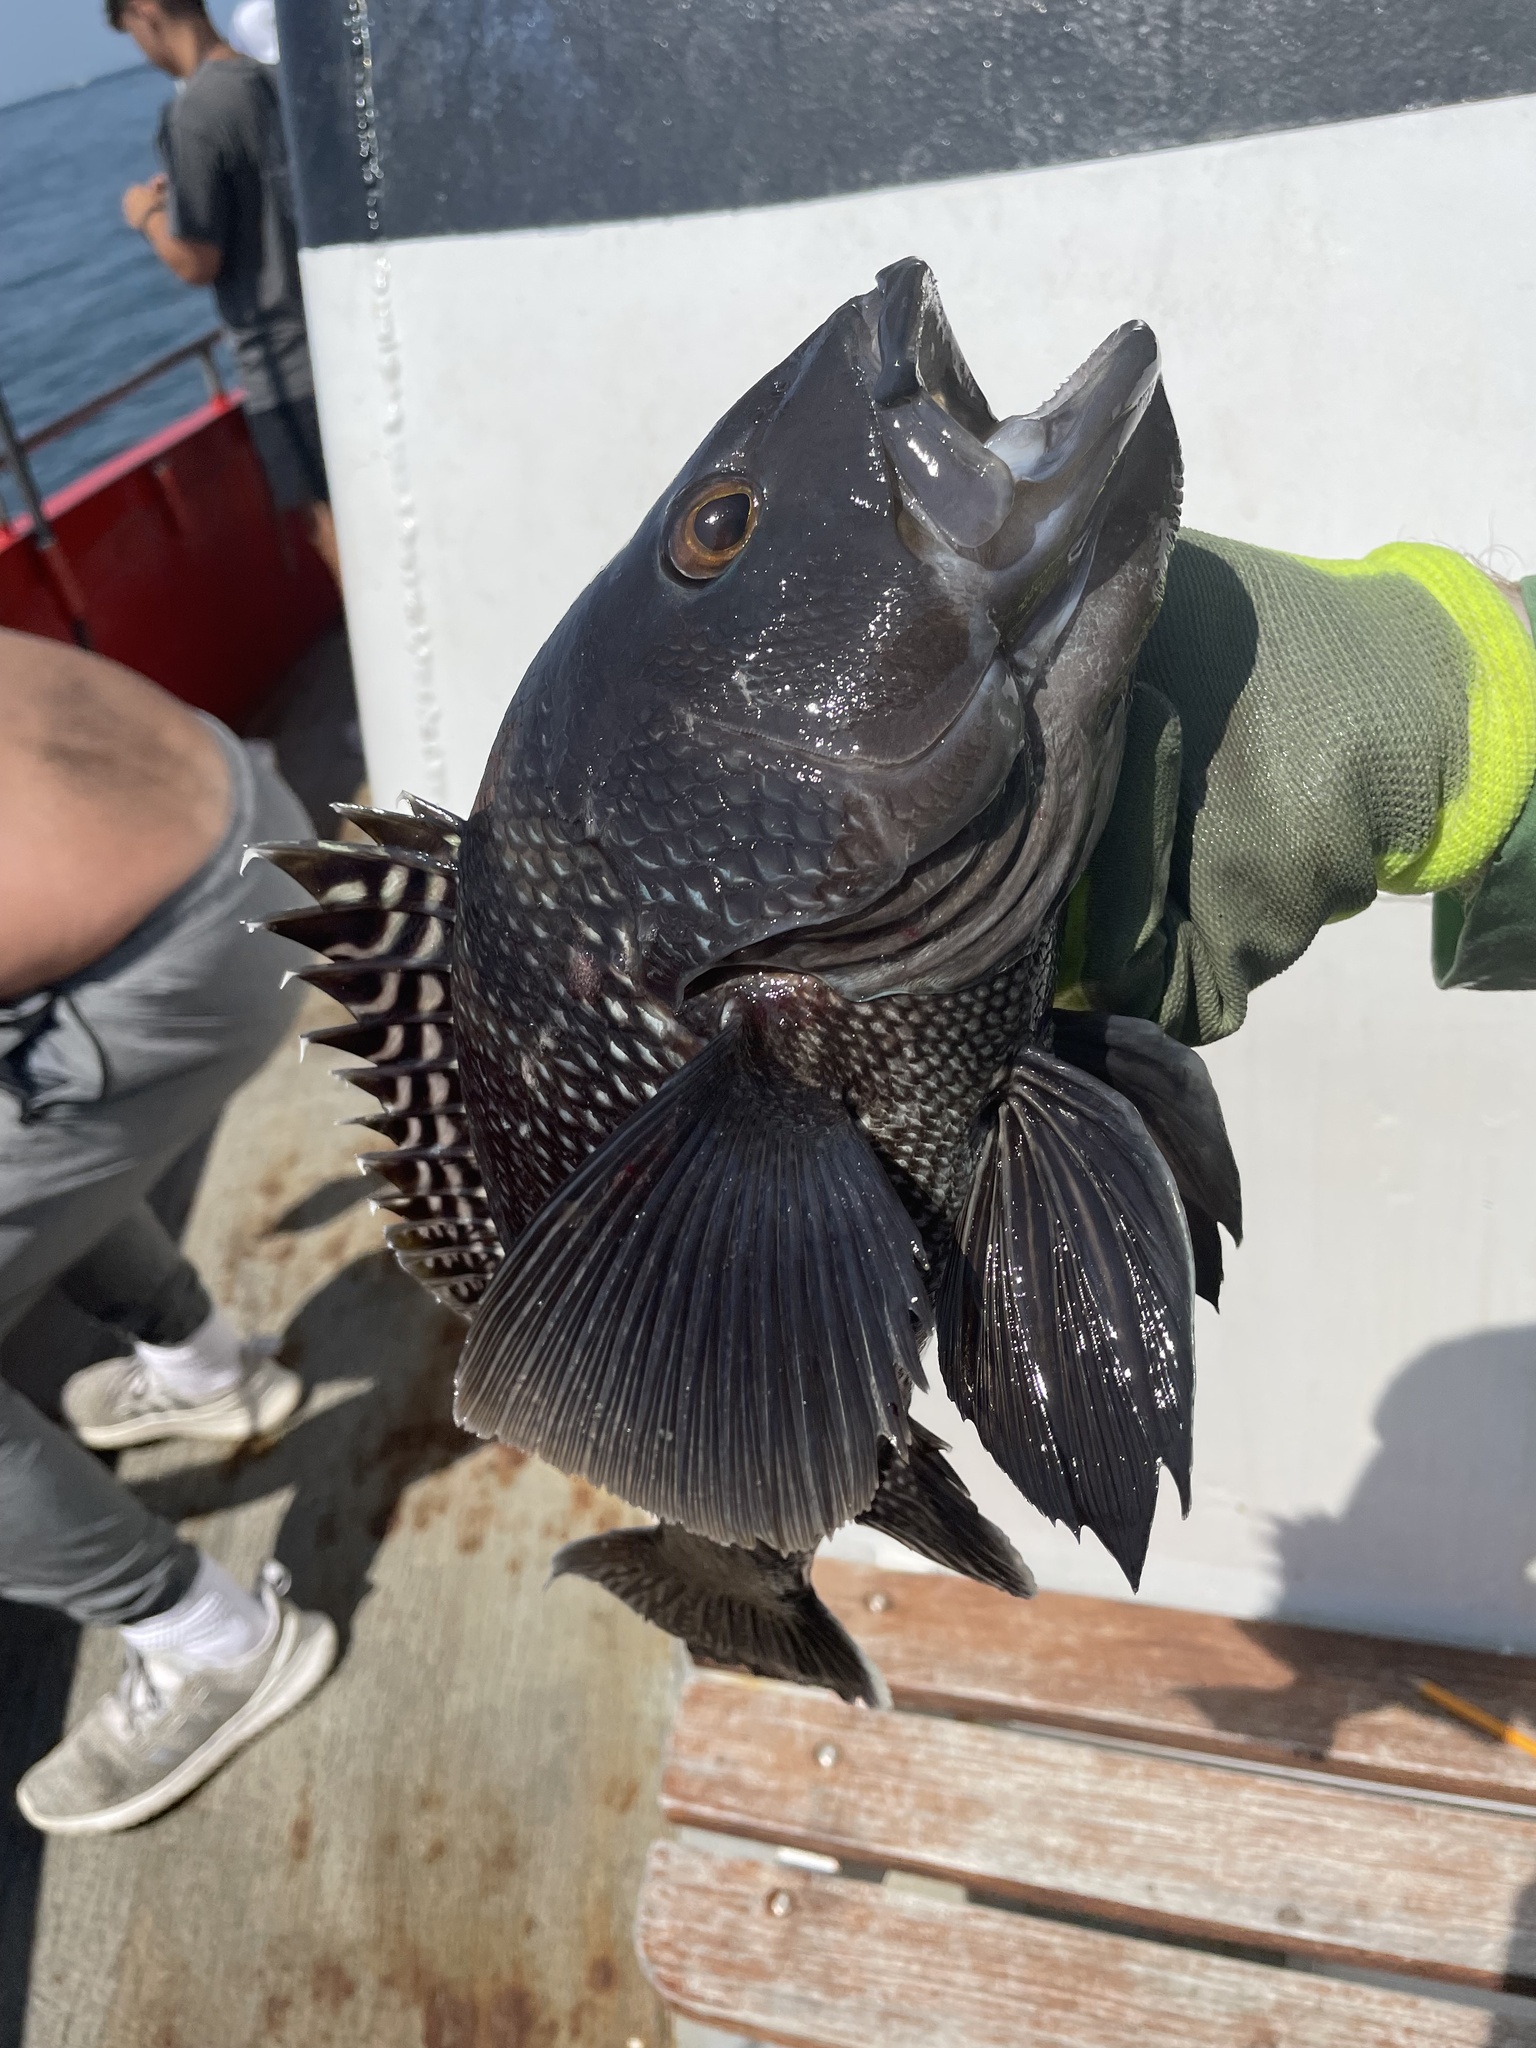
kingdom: Animalia
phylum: Chordata
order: Perciformes
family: Serranidae
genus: Centropristis
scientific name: Centropristis striata
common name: Black sea bass
